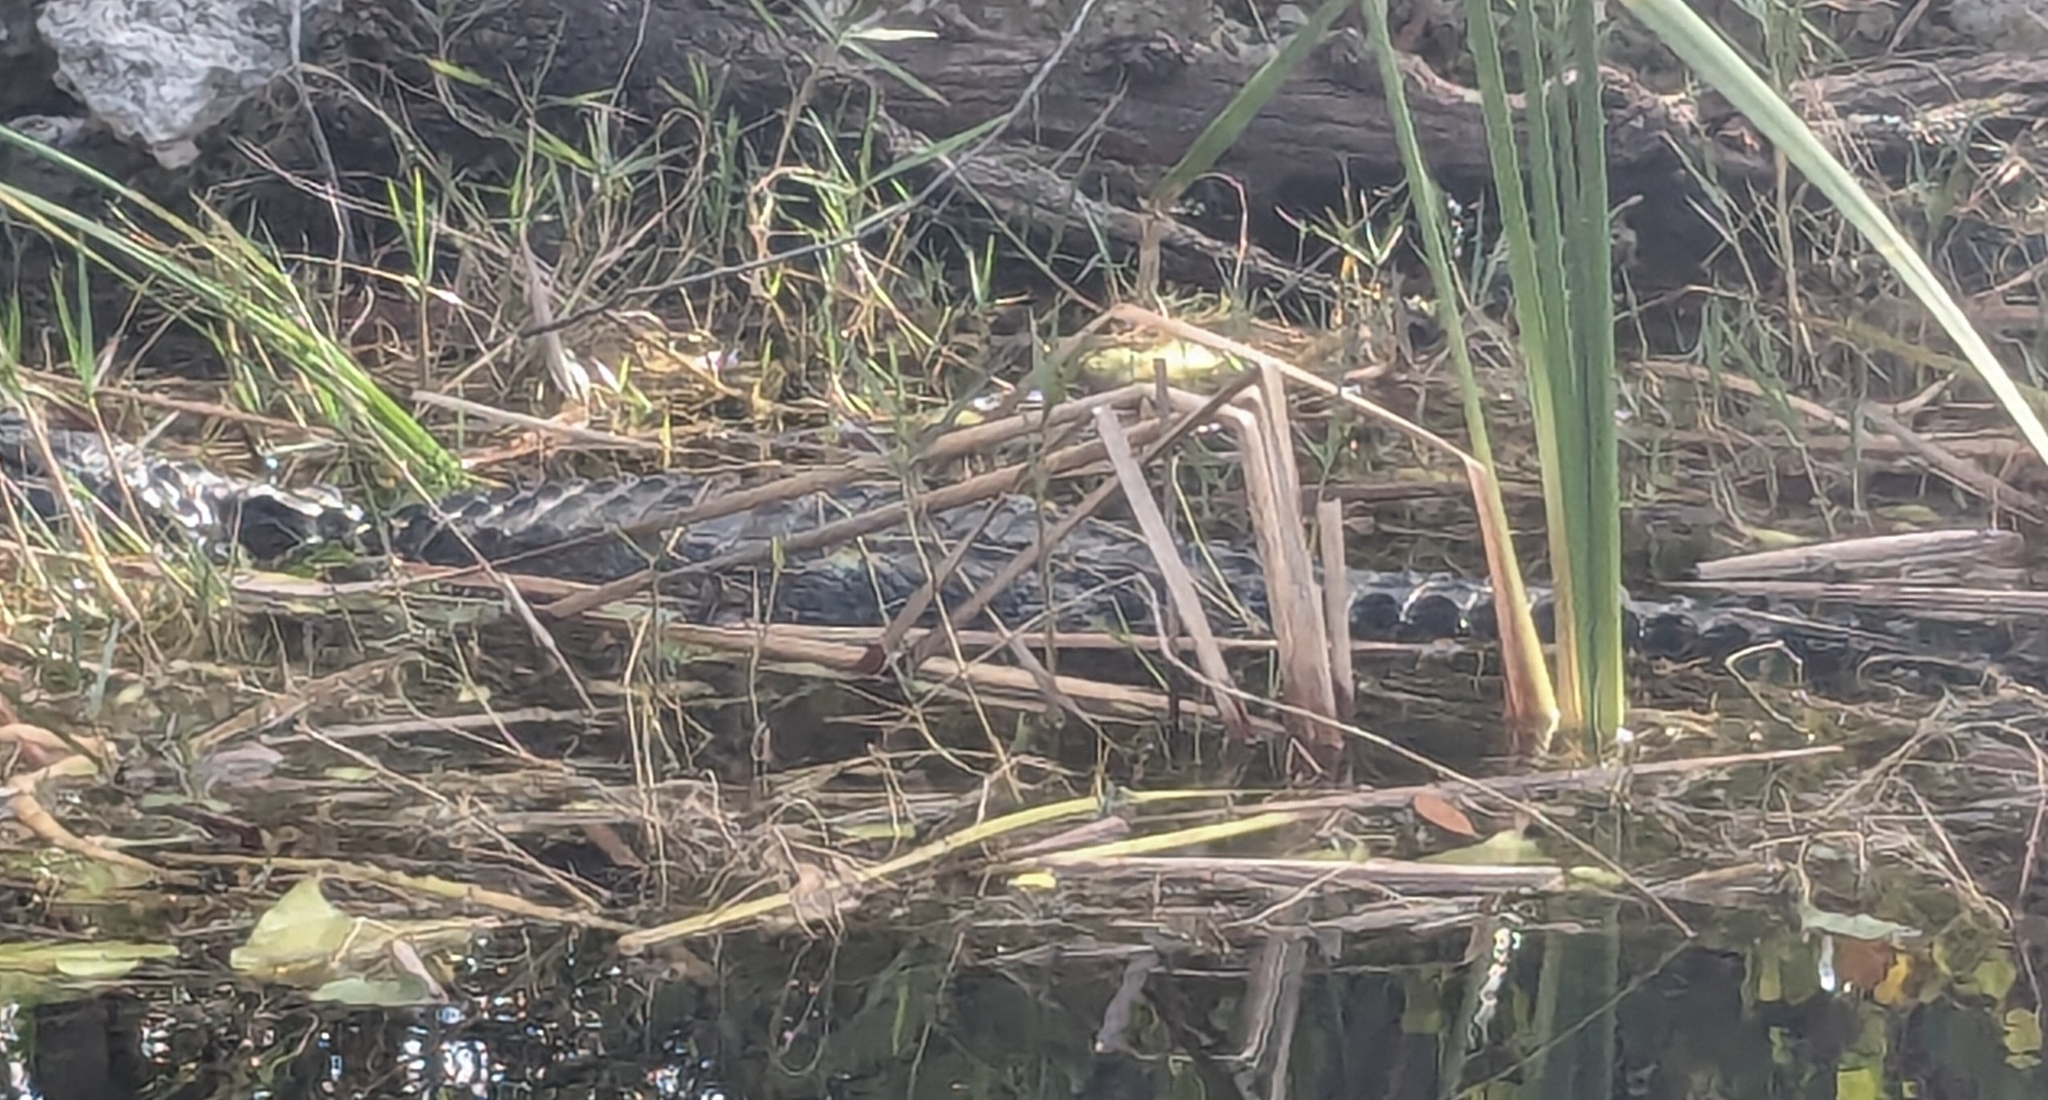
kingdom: Animalia
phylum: Chordata
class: Crocodylia
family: Alligatoridae
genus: Alligator
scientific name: Alligator mississippiensis
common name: American alligator
